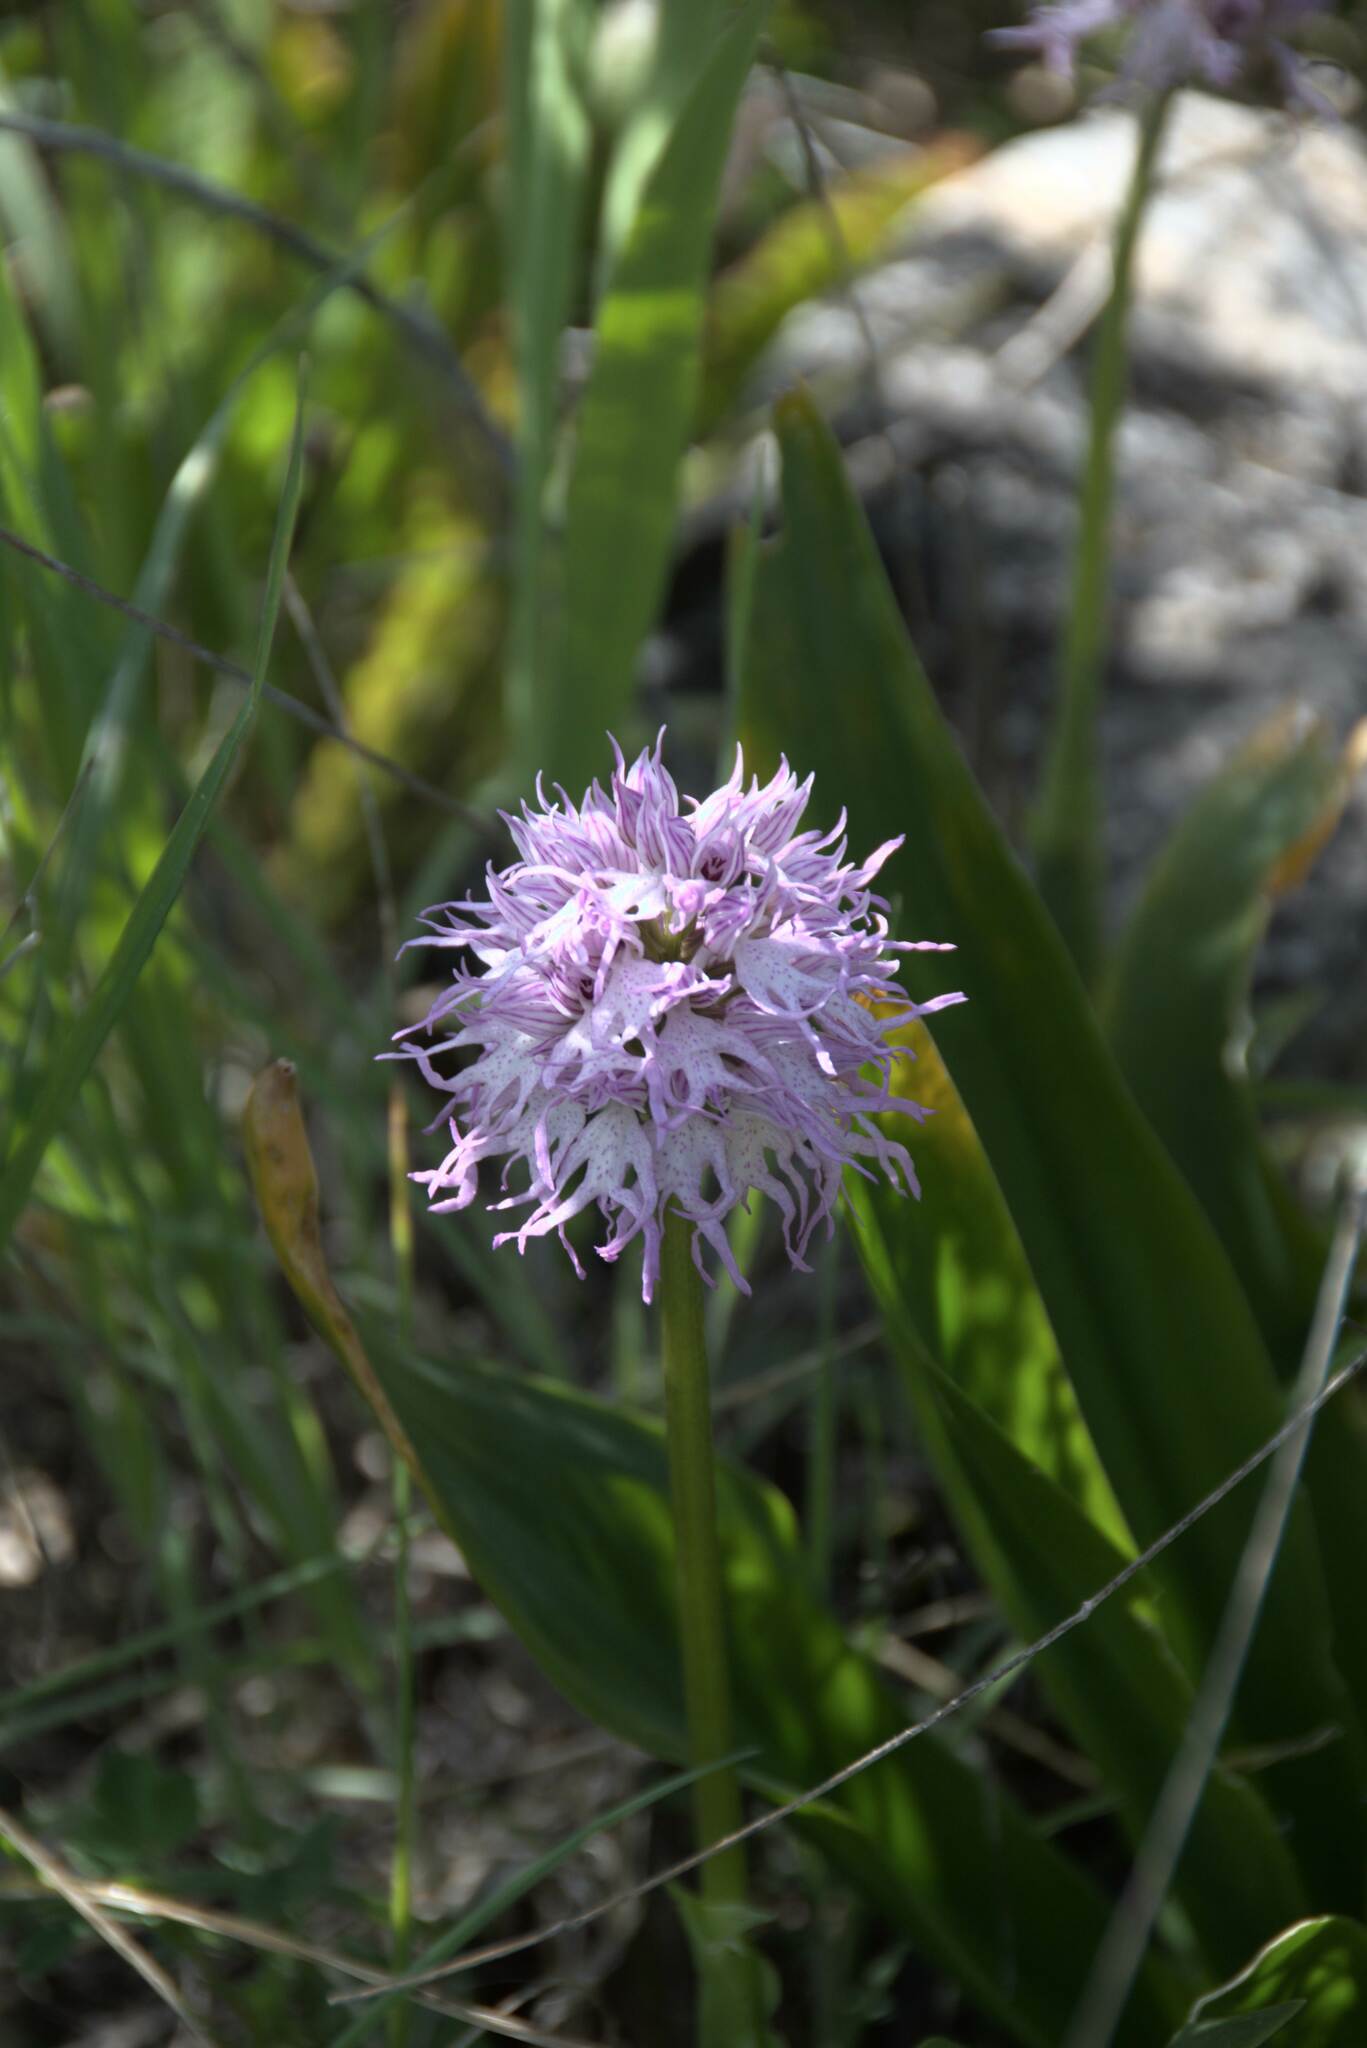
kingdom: Plantae
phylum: Tracheophyta
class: Liliopsida
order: Asparagales
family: Orchidaceae
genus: Orchis
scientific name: Orchis italica
